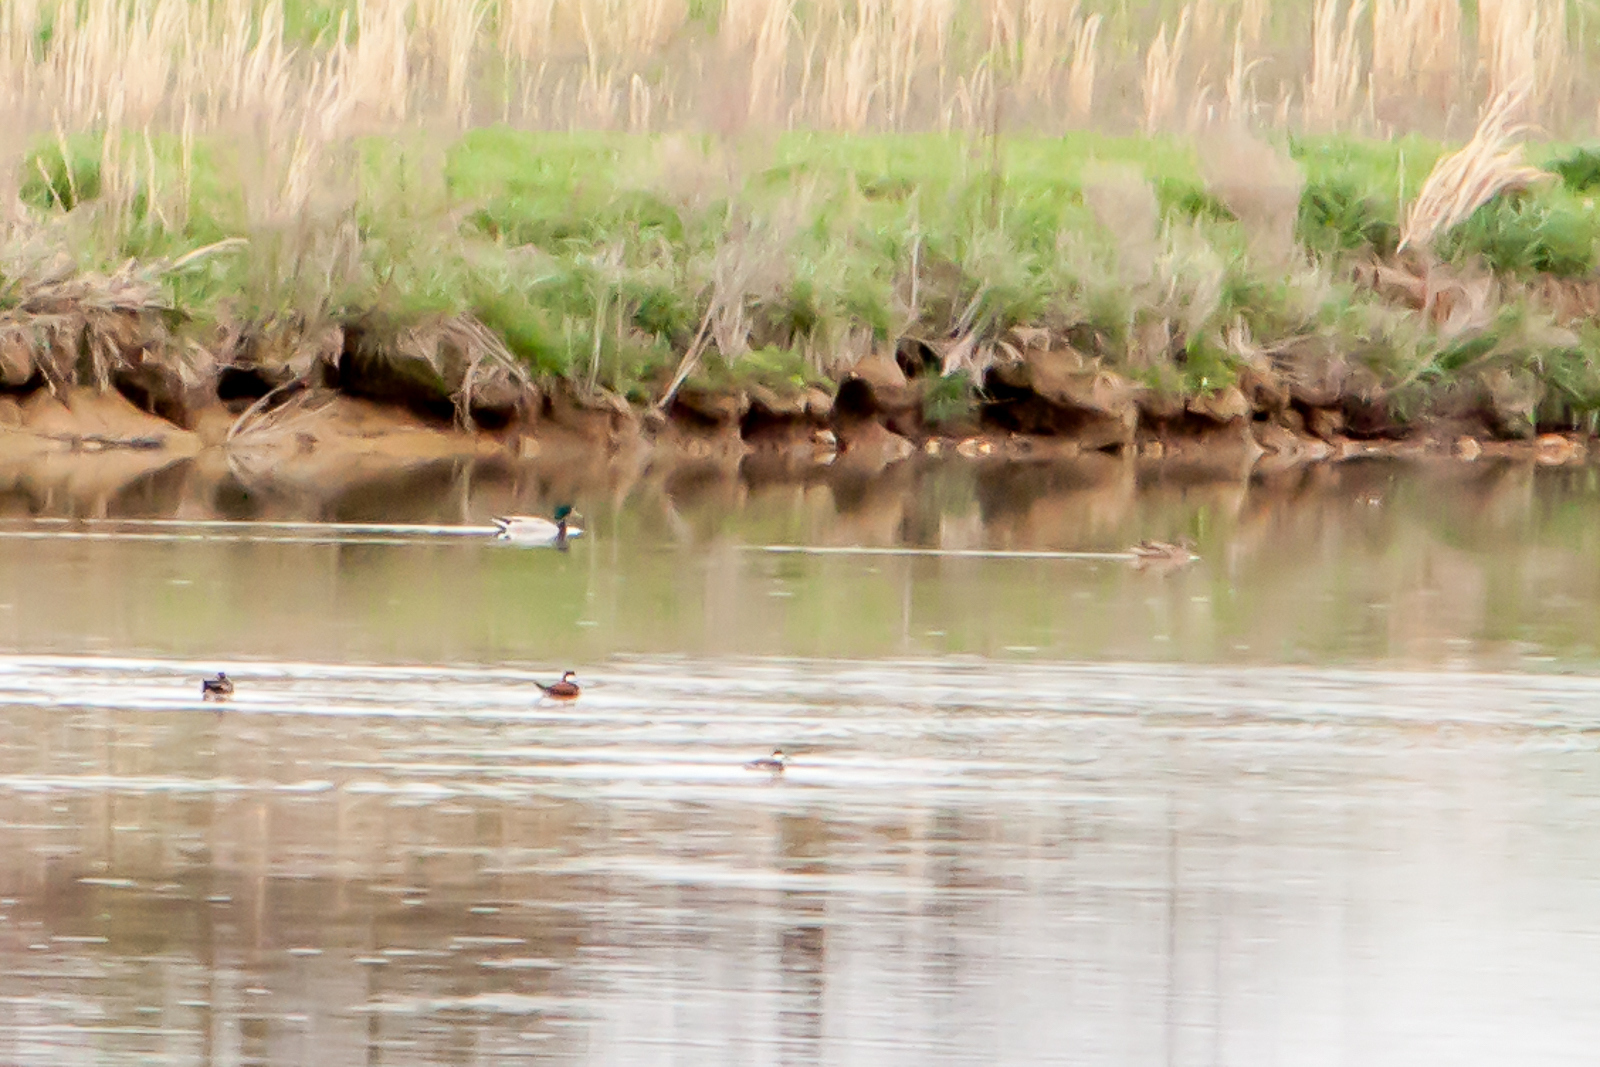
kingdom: Animalia
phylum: Chordata
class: Aves
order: Anseriformes
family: Anatidae
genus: Anas
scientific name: Anas platyrhynchos
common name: Mallard
